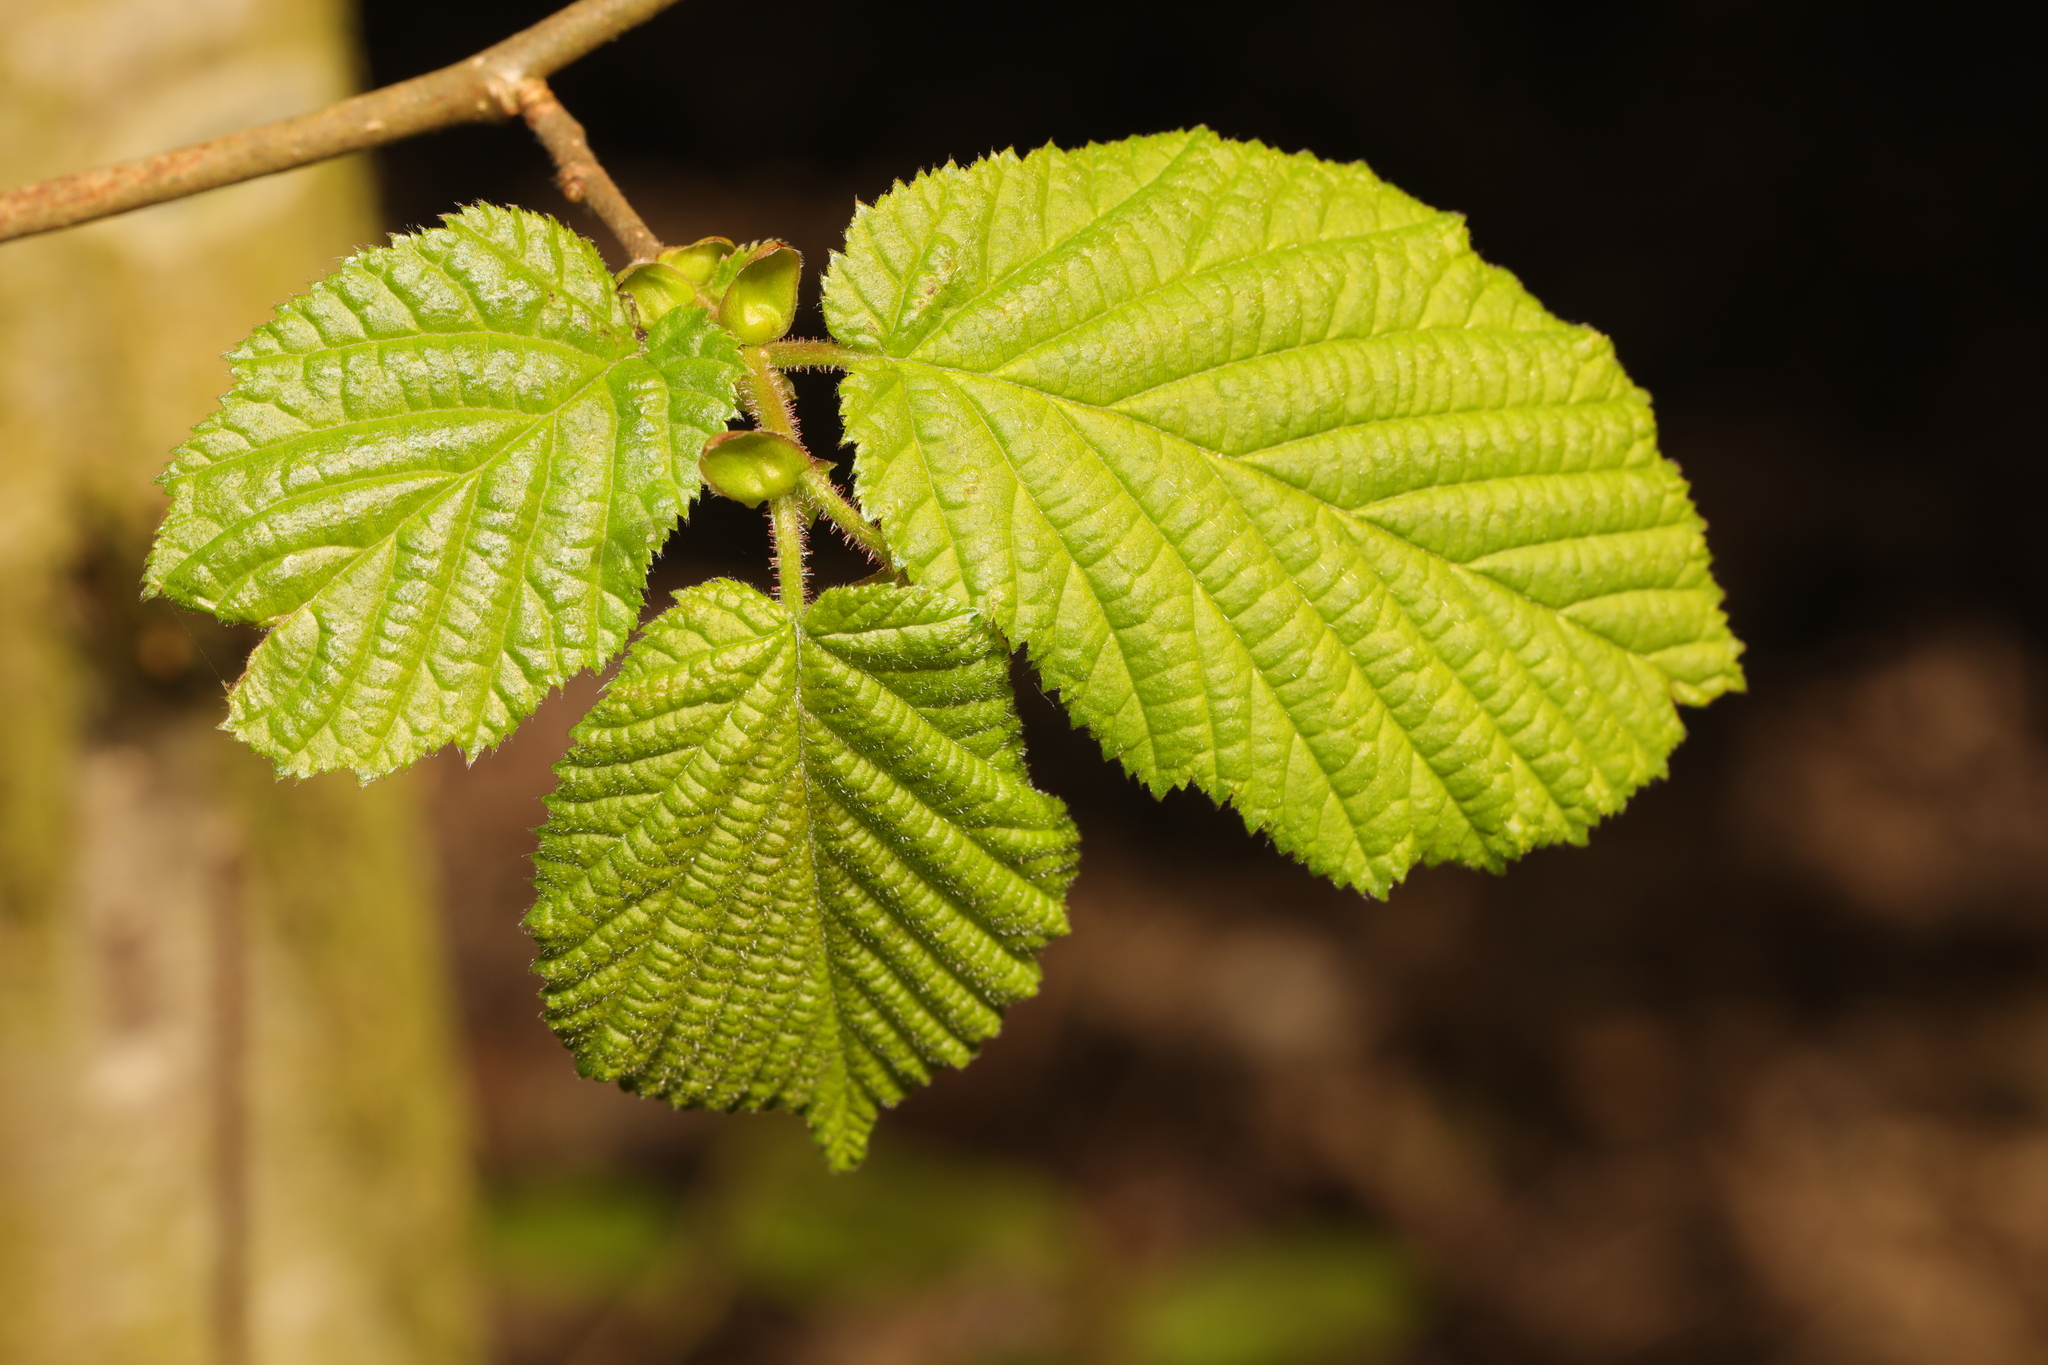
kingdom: Plantae
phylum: Tracheophyta
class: Magnoliopsida
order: Fagales
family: Betulaceae
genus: Corylus
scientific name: Corylus avellana
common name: European hazel
